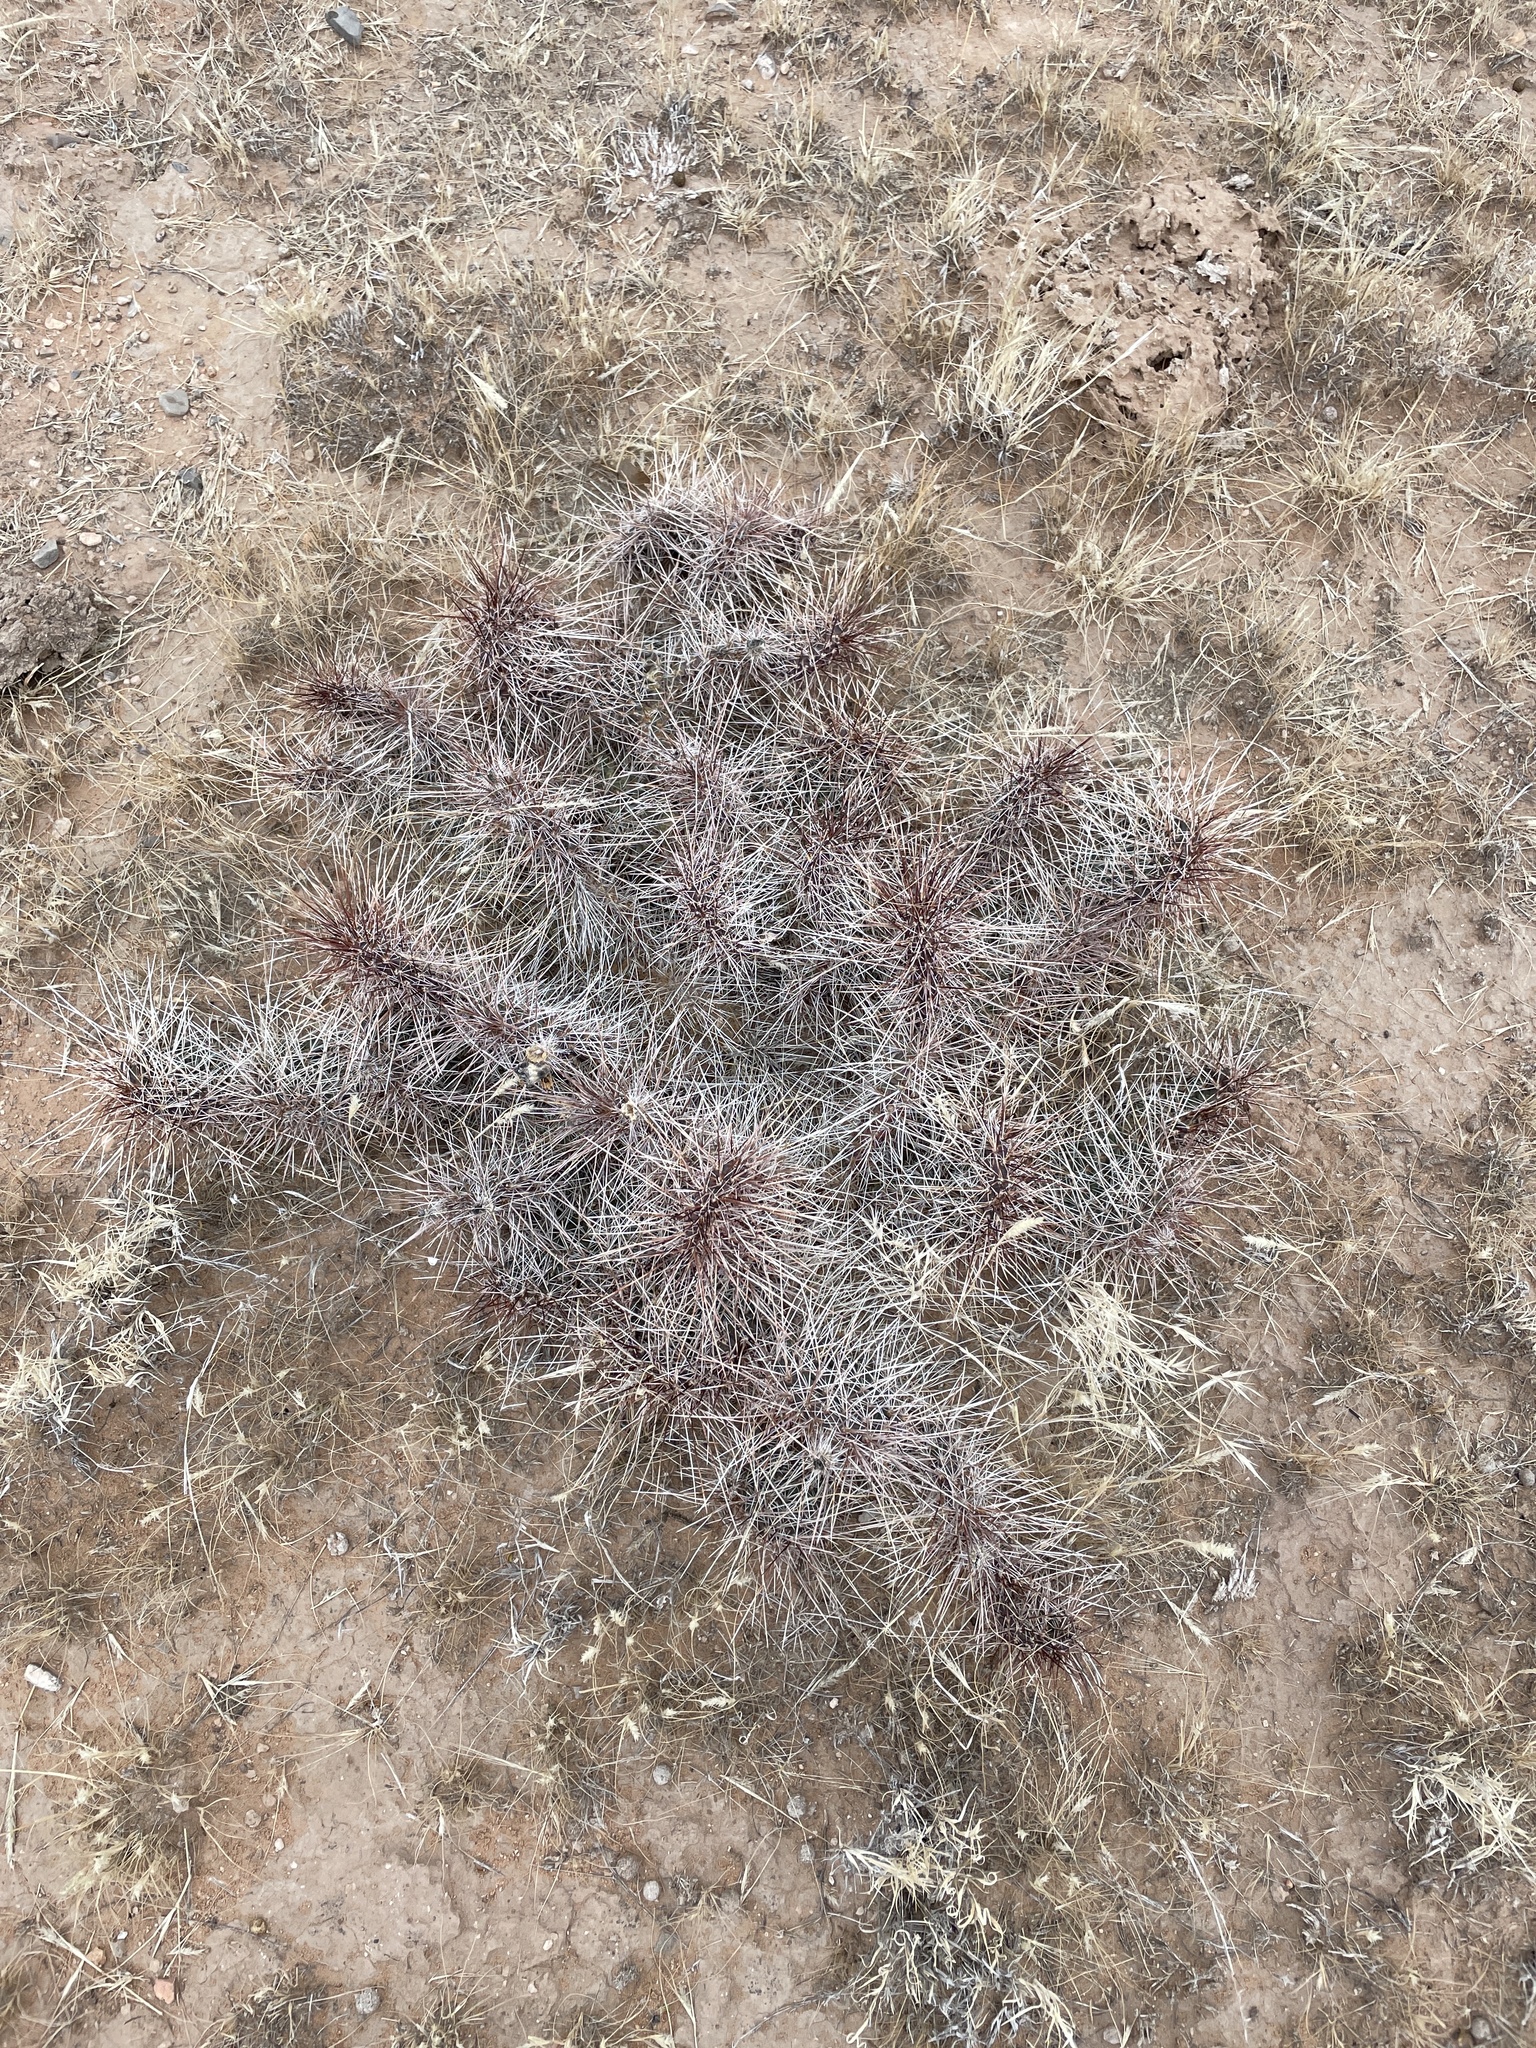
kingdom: Plantae
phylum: Tracheophyta
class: Magnoliopsida
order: Caryophyllales
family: Cactaceae
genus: Opuntia
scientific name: Opuntia polyacantha
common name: Plains prickly-pear
